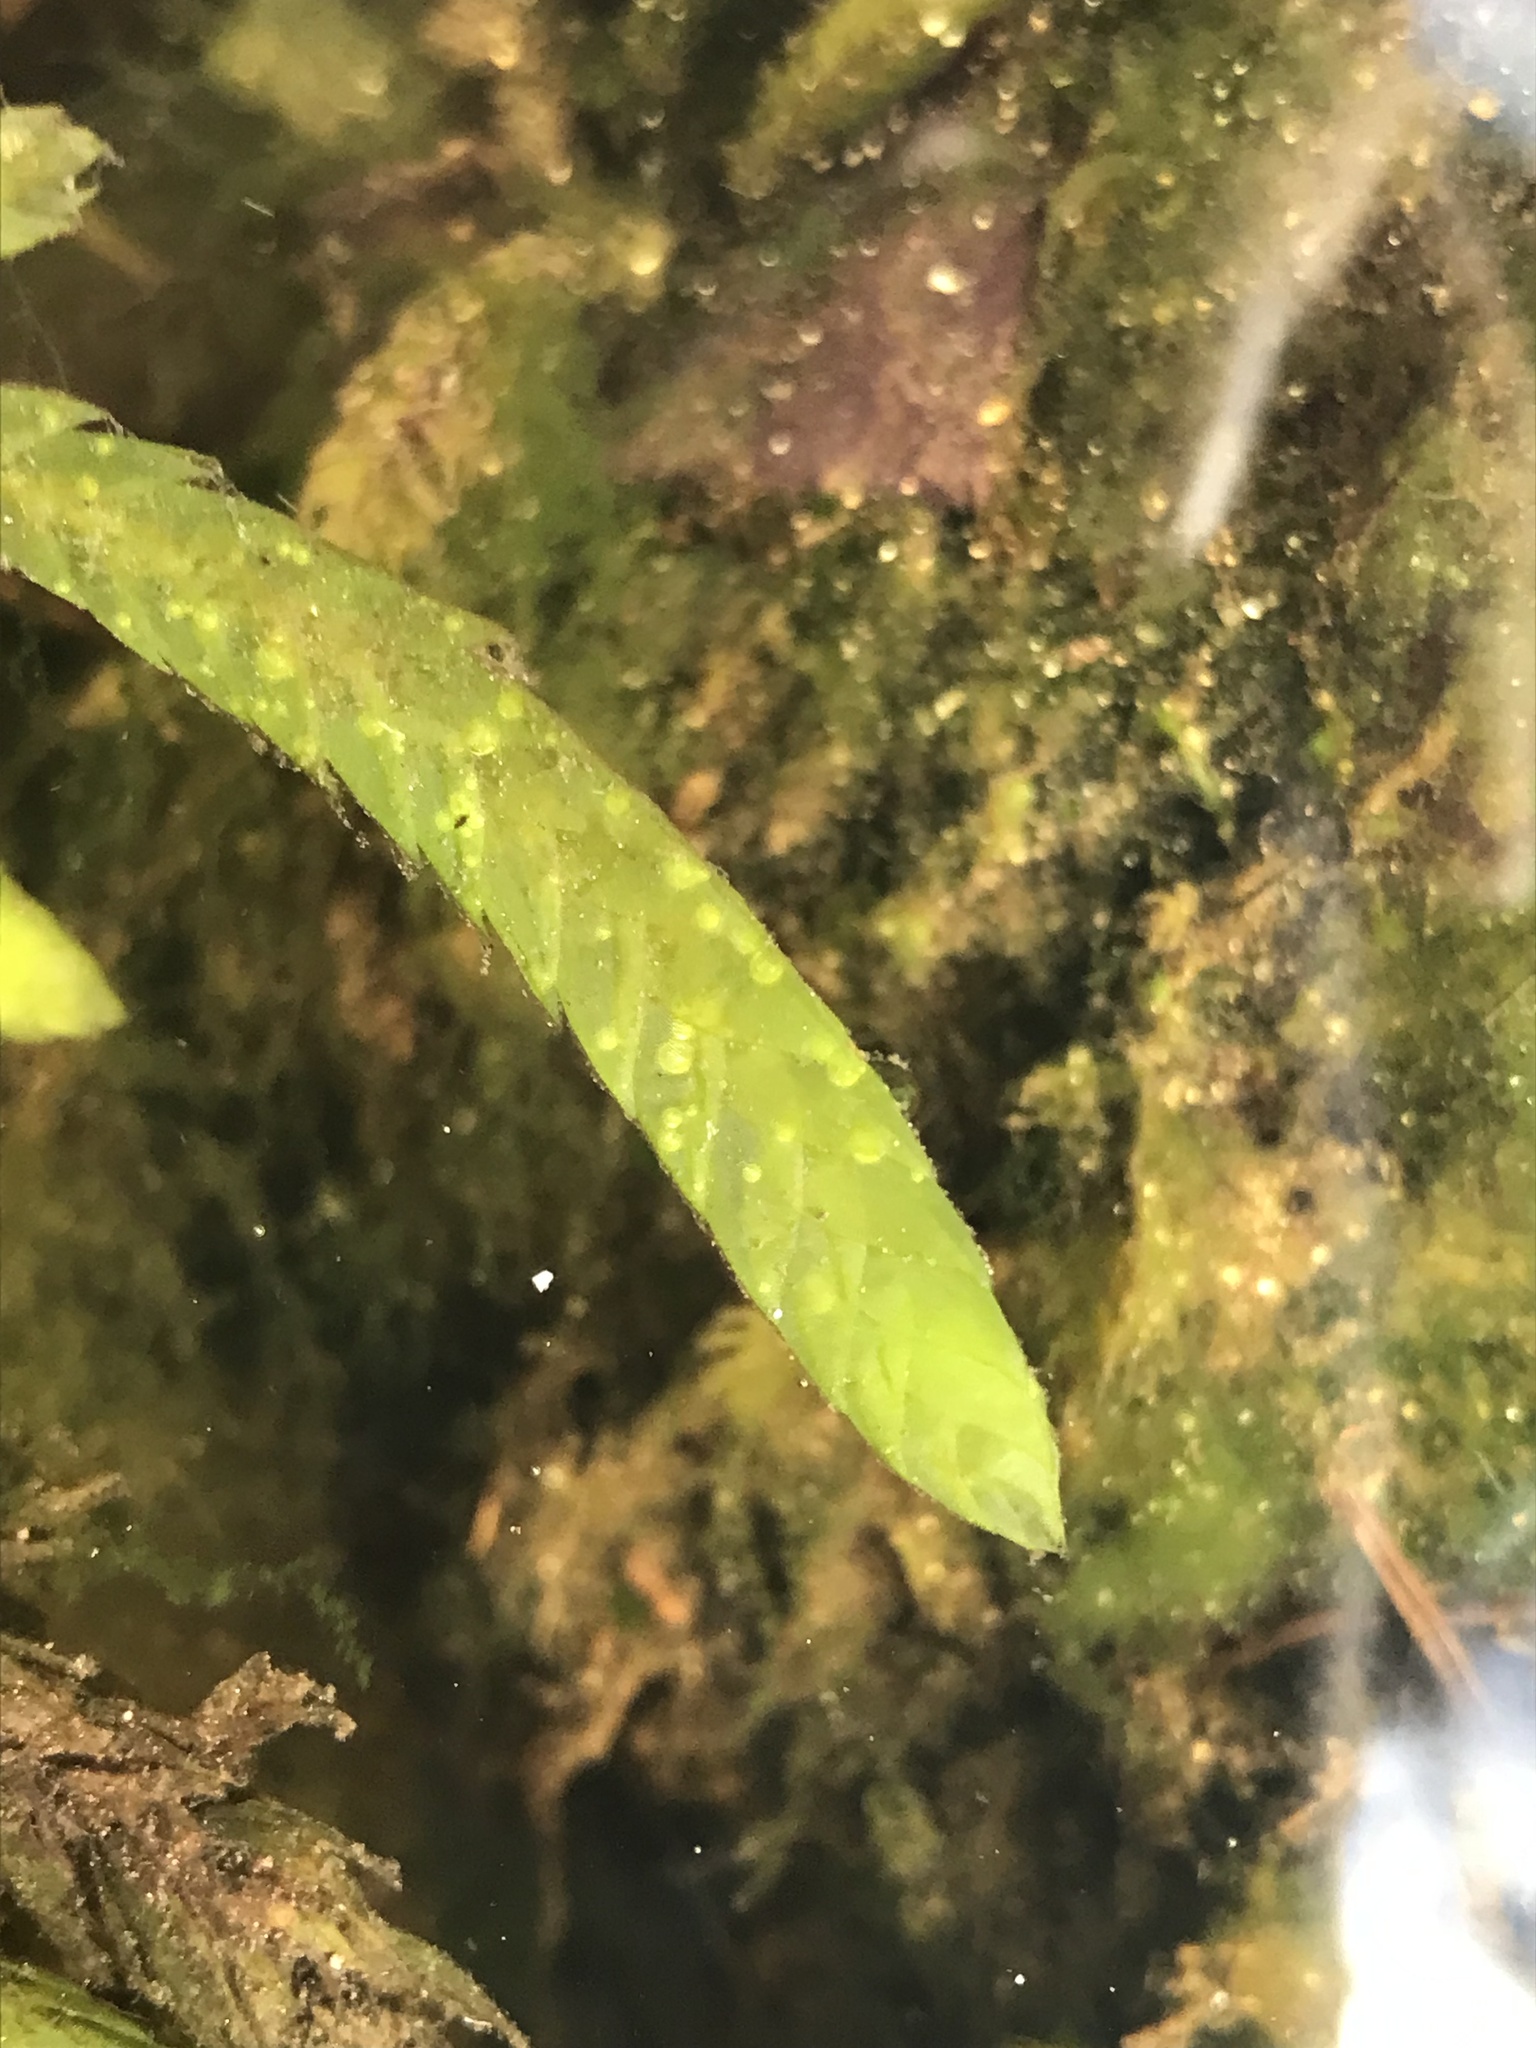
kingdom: Plantae
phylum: Bryophyta
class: Bryopsida
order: Hypnales
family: Fontinalaceae
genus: Fontinalis
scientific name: Fontinalis antipyretica
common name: Greater water-moss
